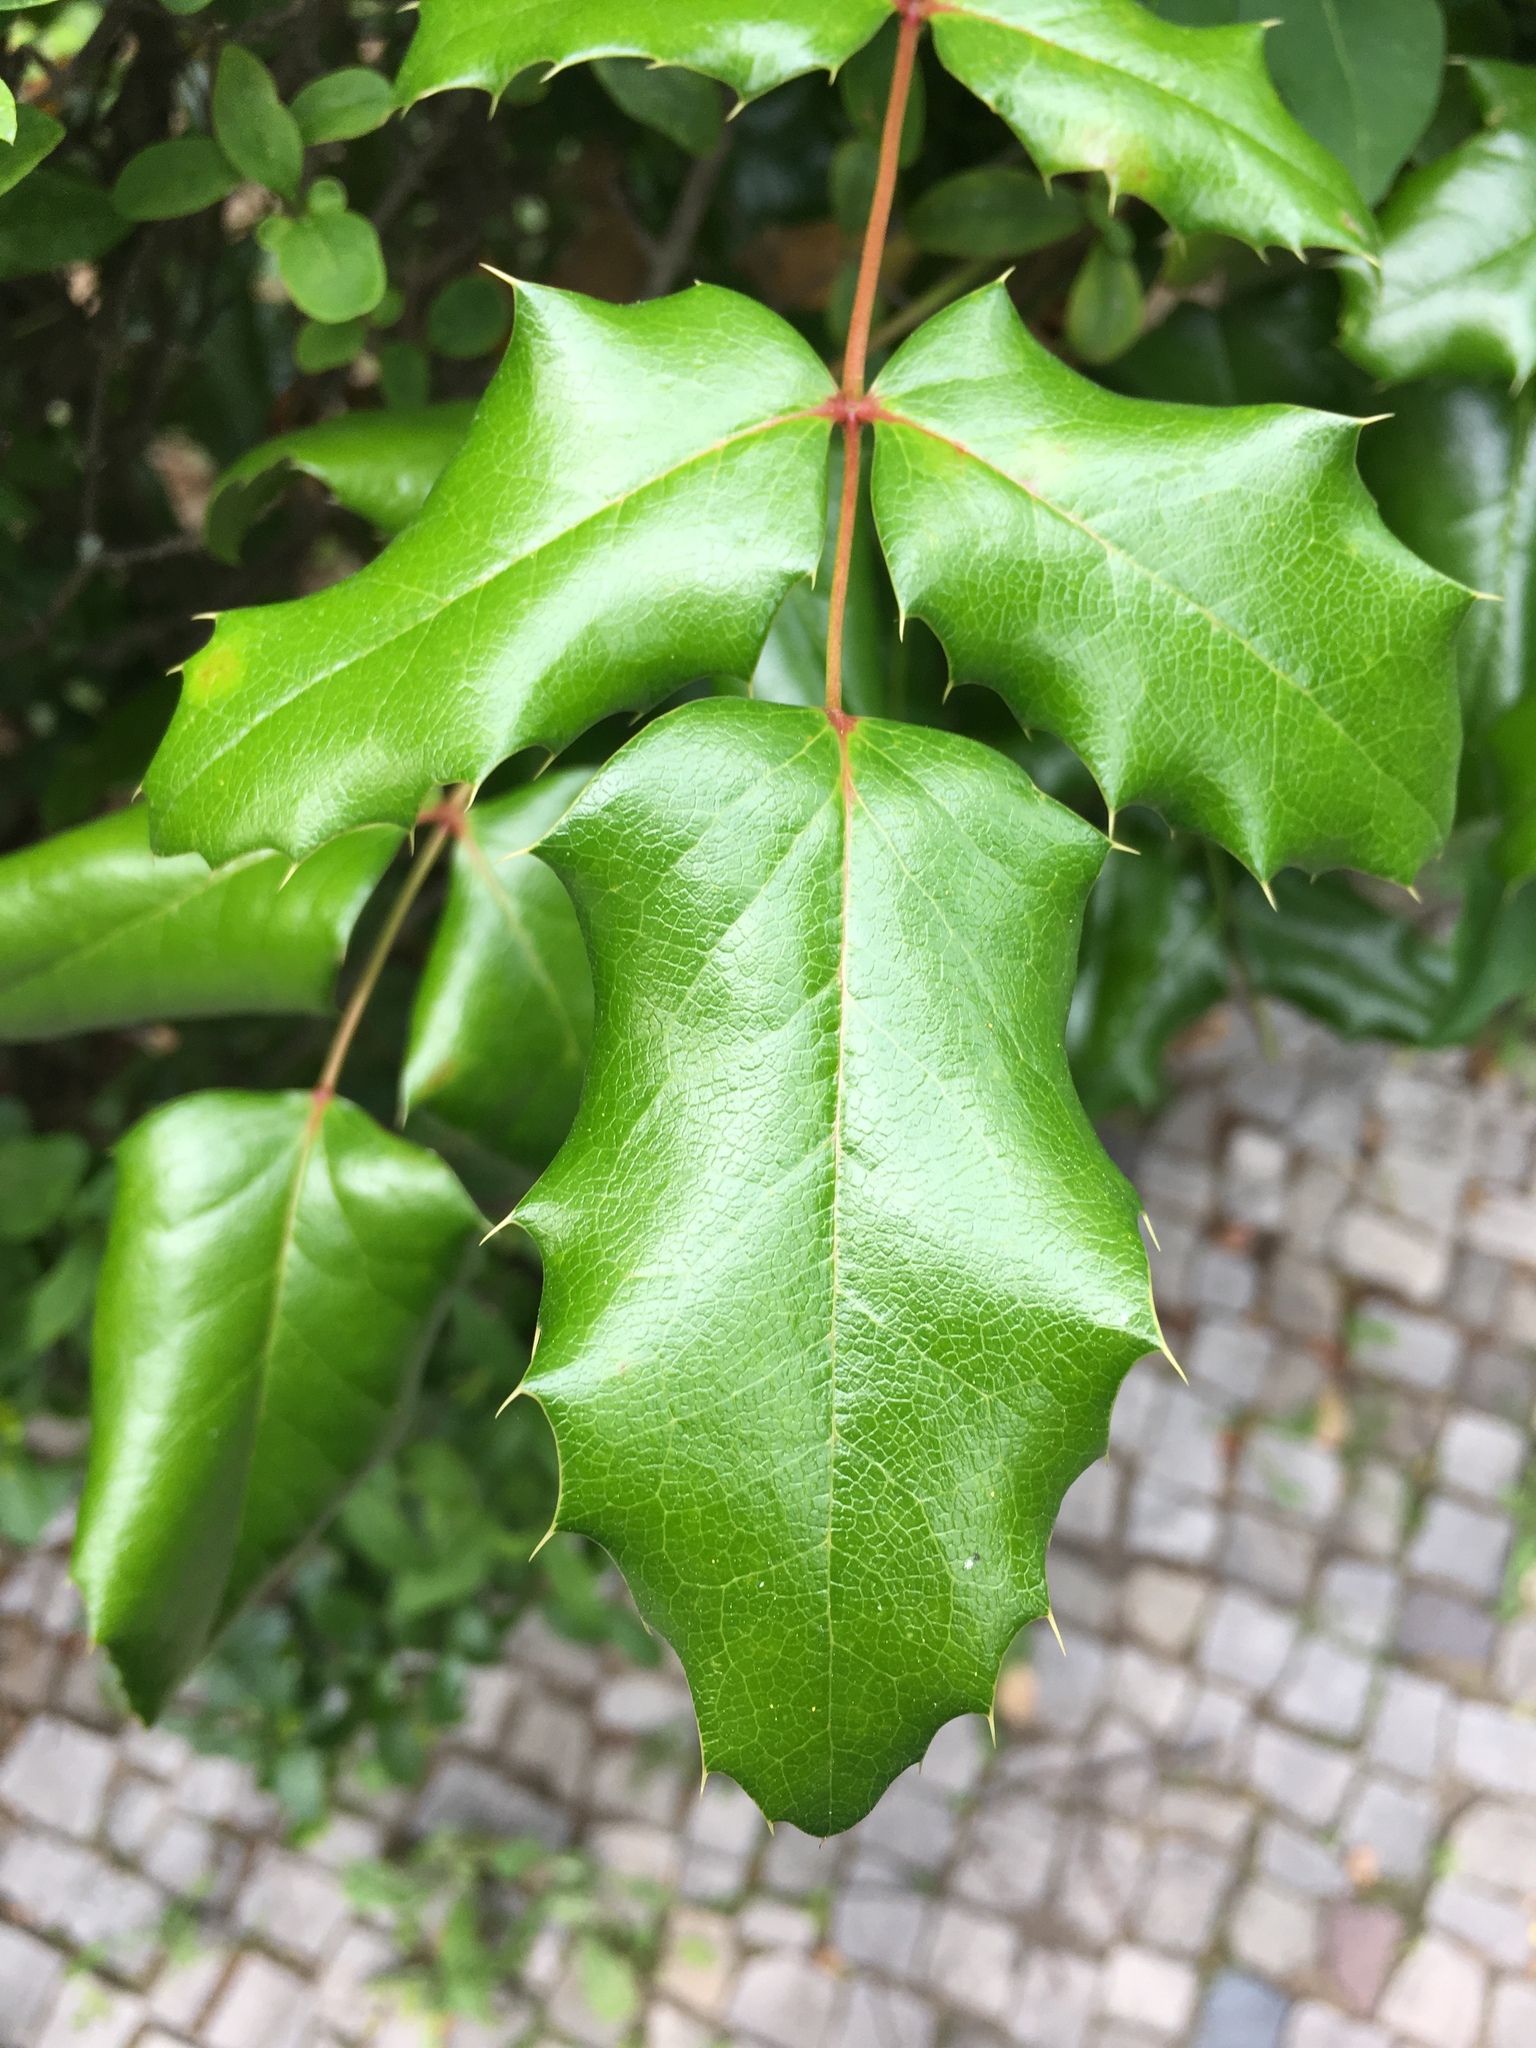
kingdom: Plantae
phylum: Tracheophyta
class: Magnoliopsida
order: Ranunculales
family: Berberidaceae
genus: Mahonia
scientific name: Mahonia aquifolium
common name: Oregon-grape
